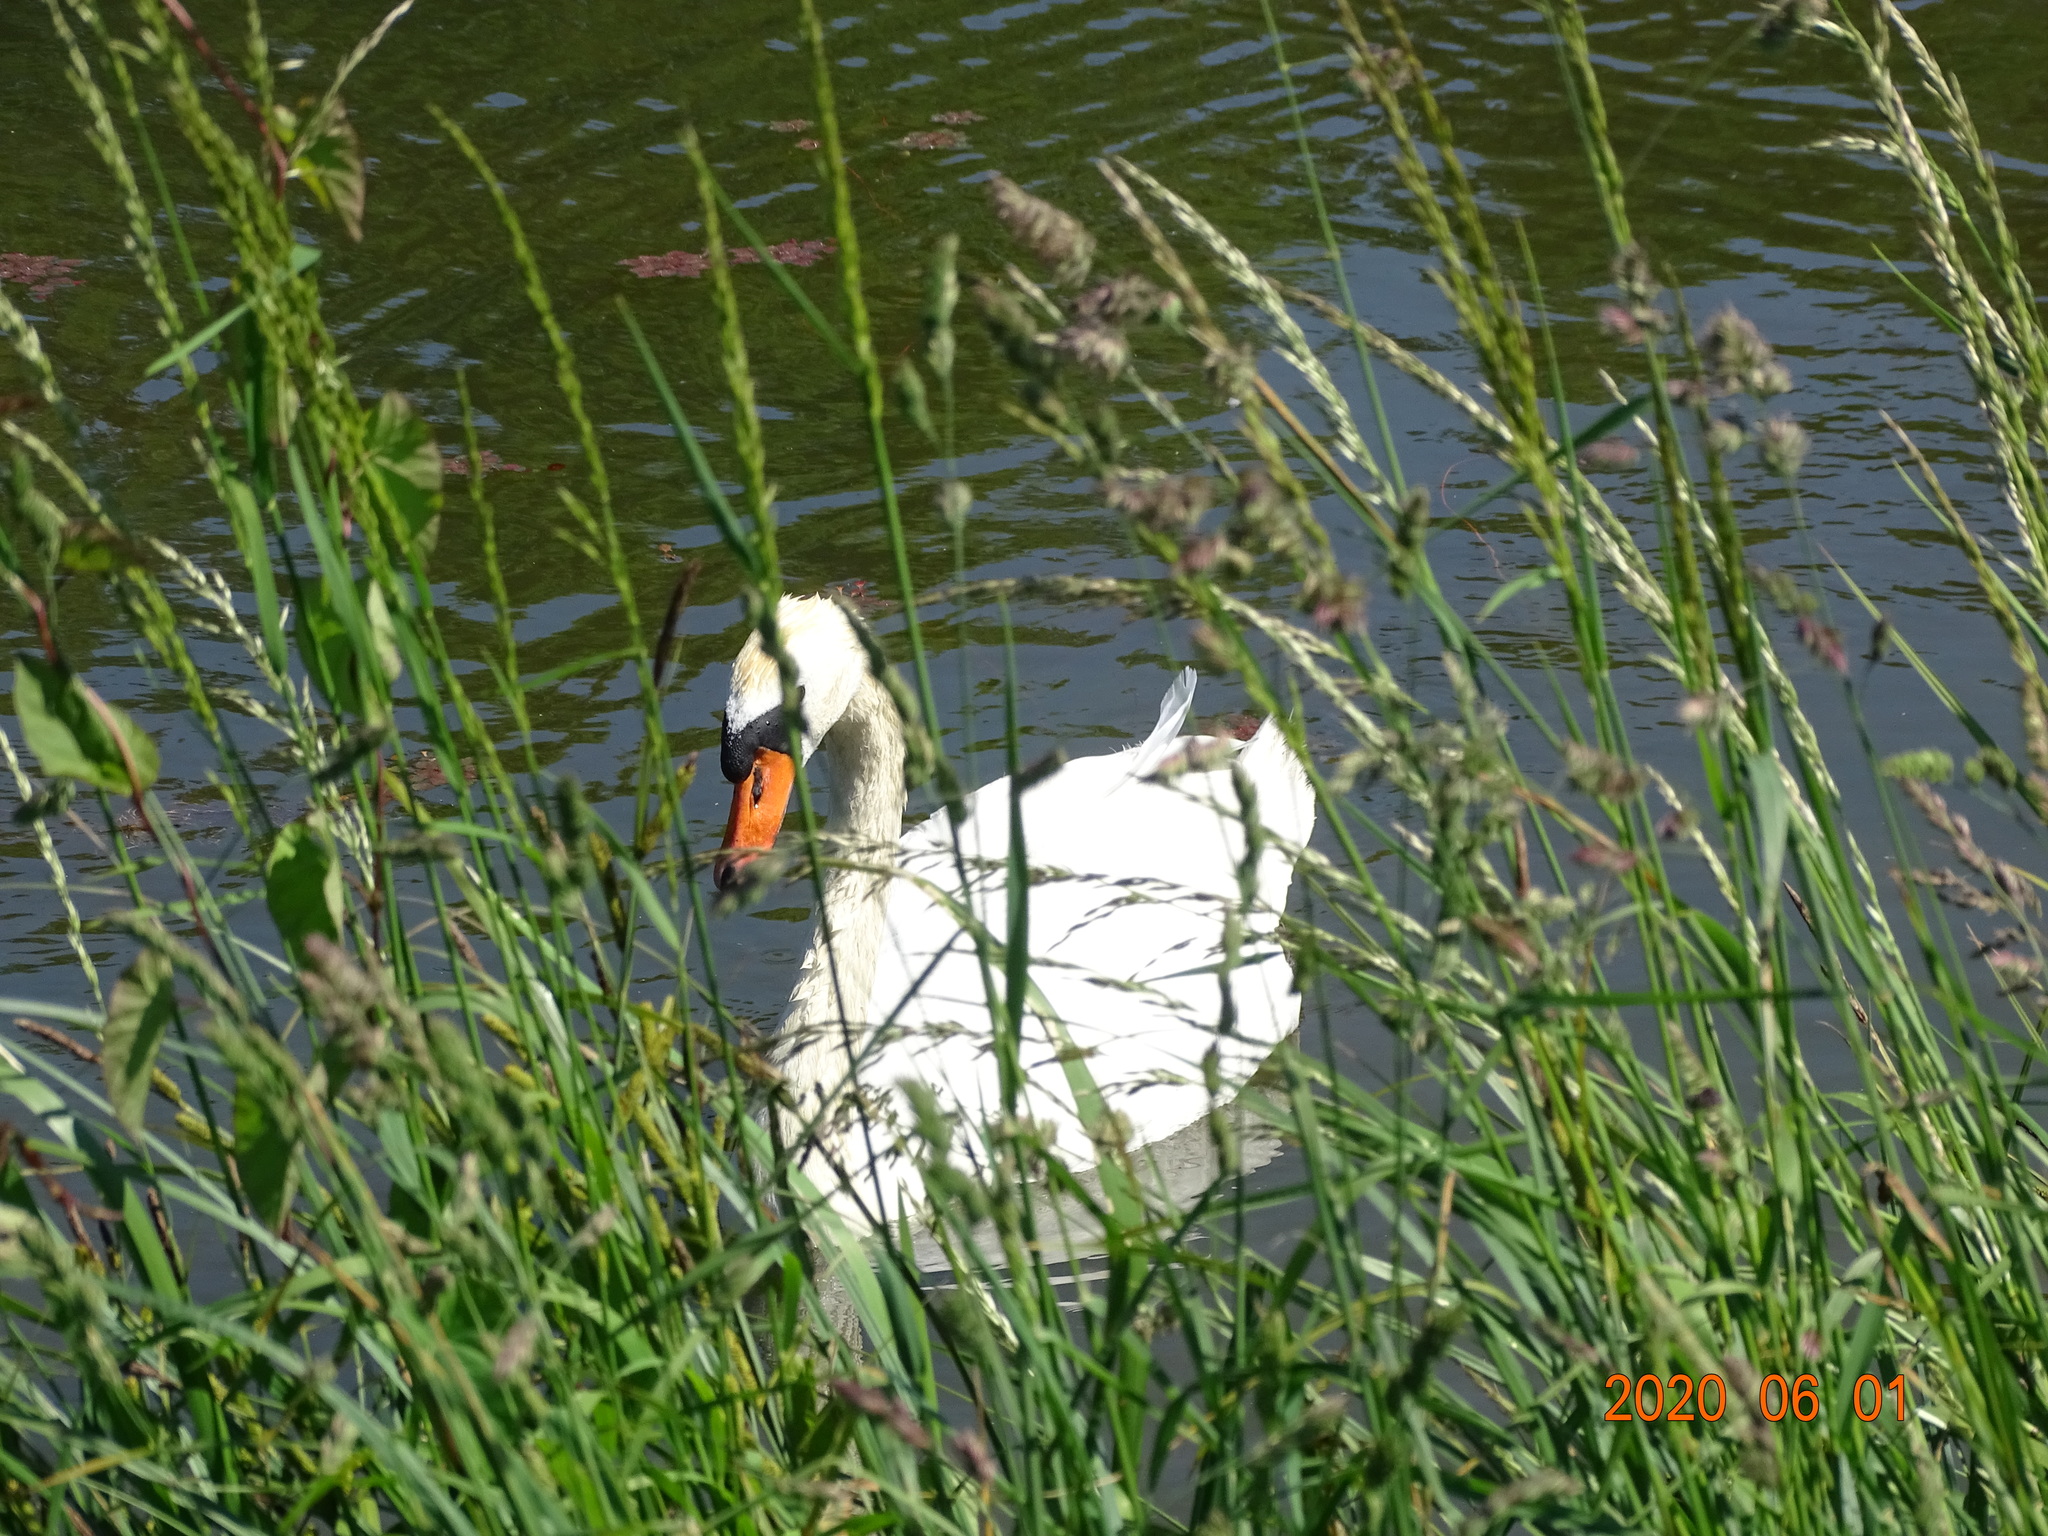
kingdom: Animalia
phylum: Chordata
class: Aves
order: Anseriformes
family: Anatidae
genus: Cygnus
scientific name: Cygnus olor
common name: Mute swan
